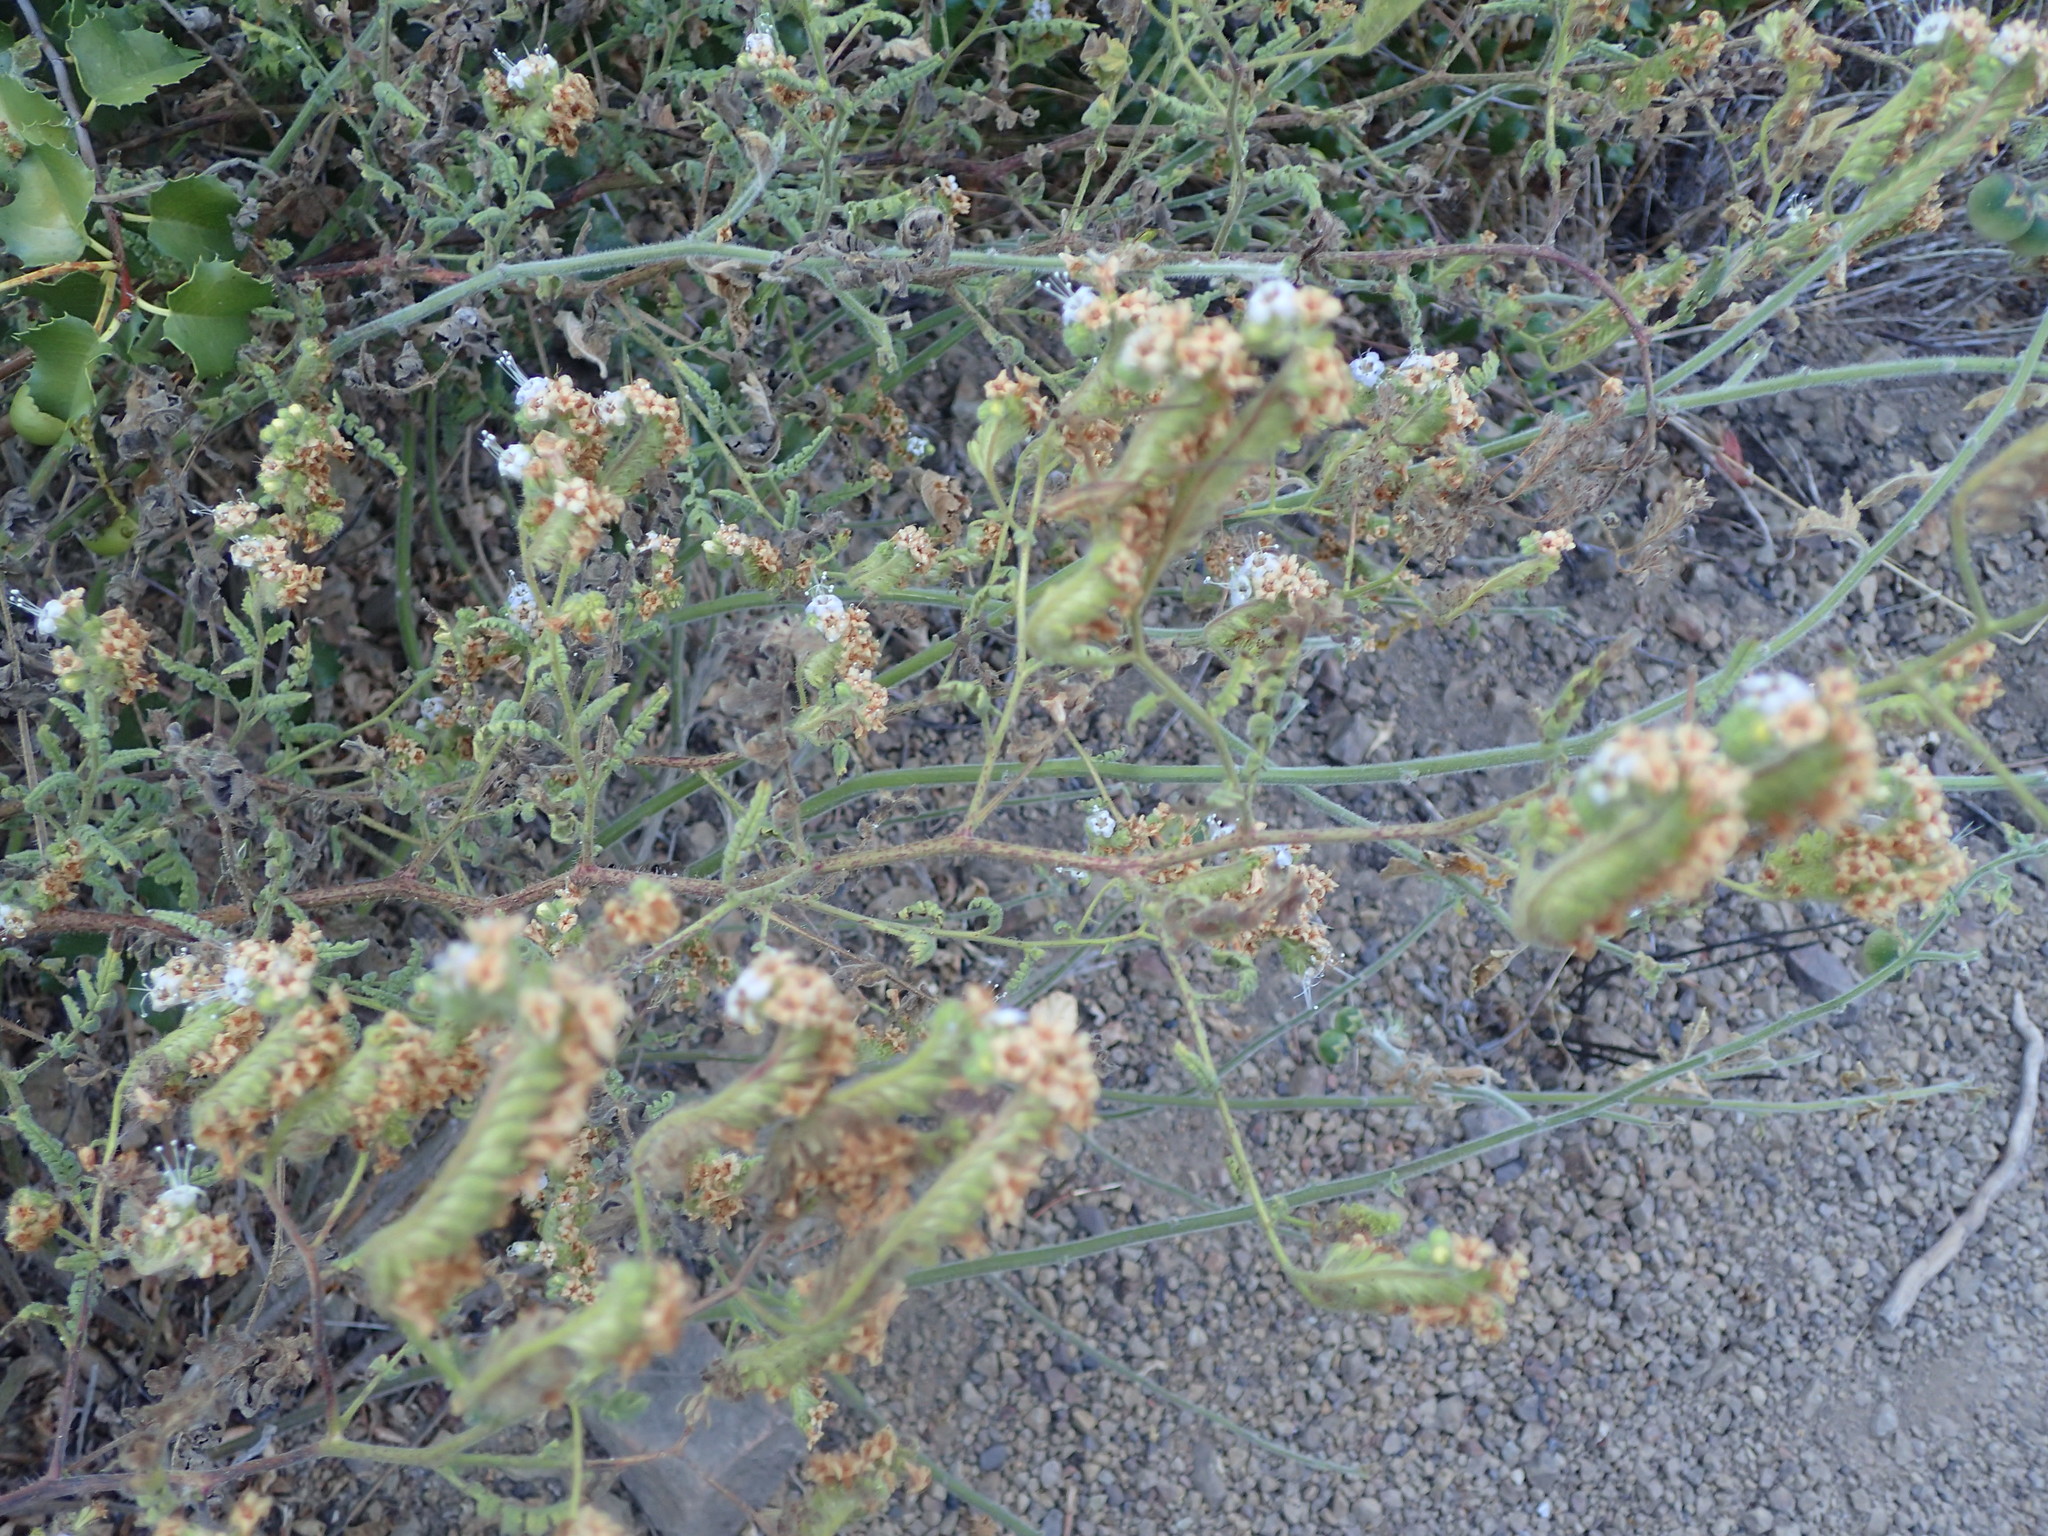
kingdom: Plantae
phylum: Tracheophyta
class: Magnoliopsida
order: Boraginales
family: Hydrophyllaceae
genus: Phacelia
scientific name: Phacelia ramosissima
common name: Branching phacelia
